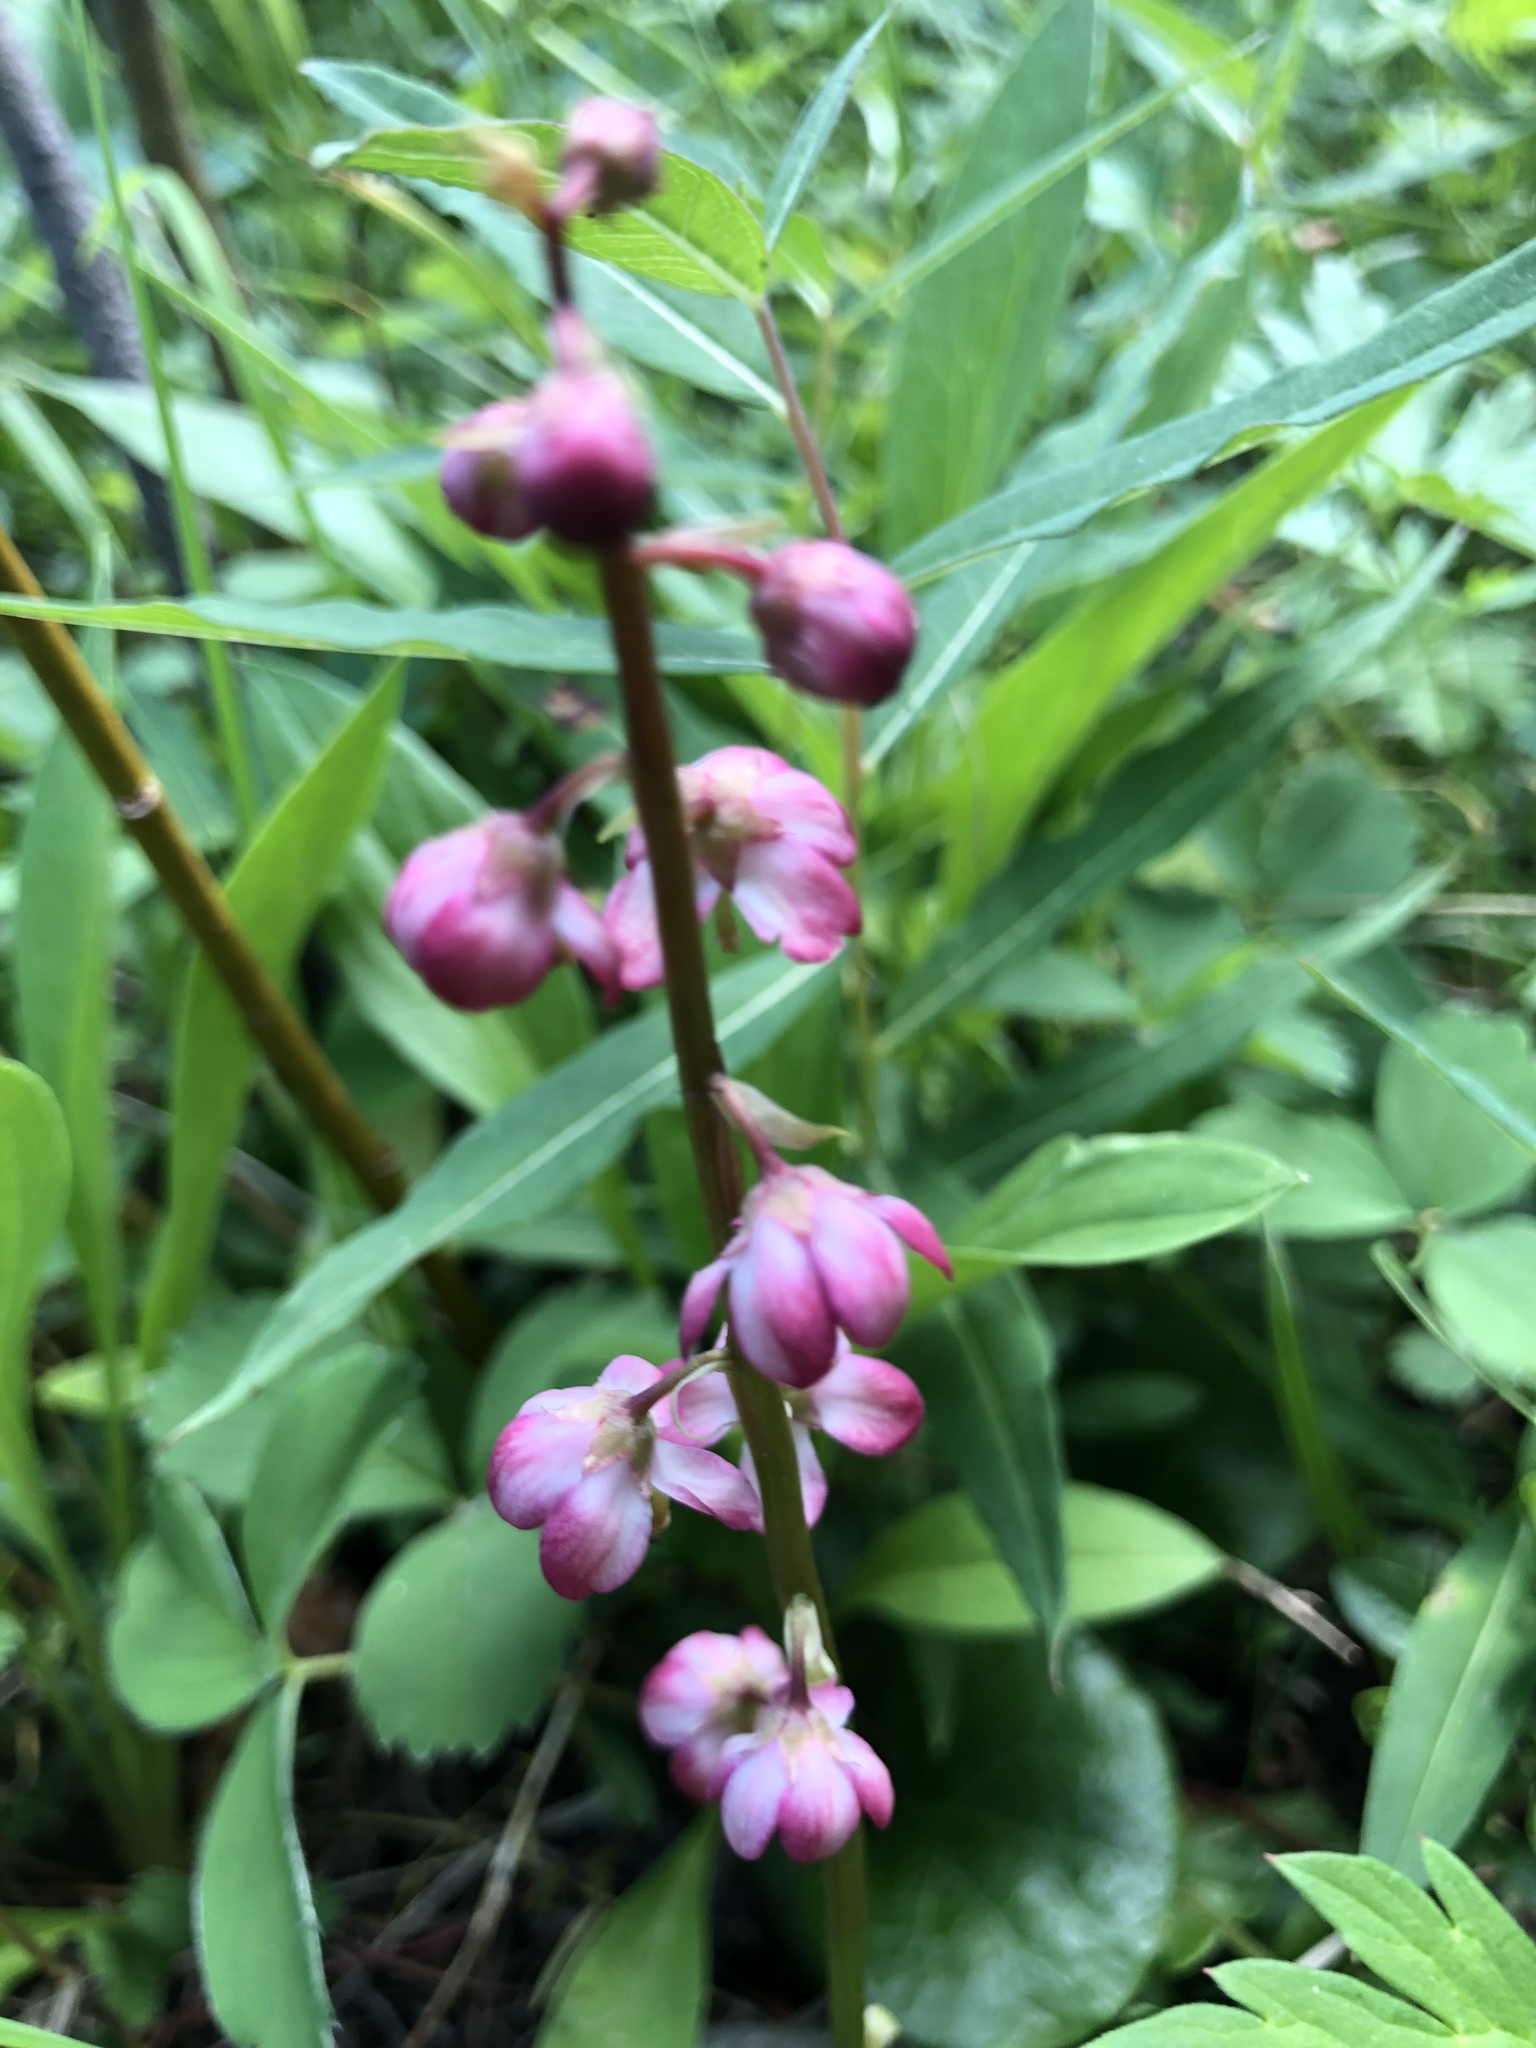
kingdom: Plantae
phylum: Tracheophyta
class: Magnoliopsida
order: Ericales
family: Ericaceae
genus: Pyrola
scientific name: Pyrola asarifolia
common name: Bog wintergreen
